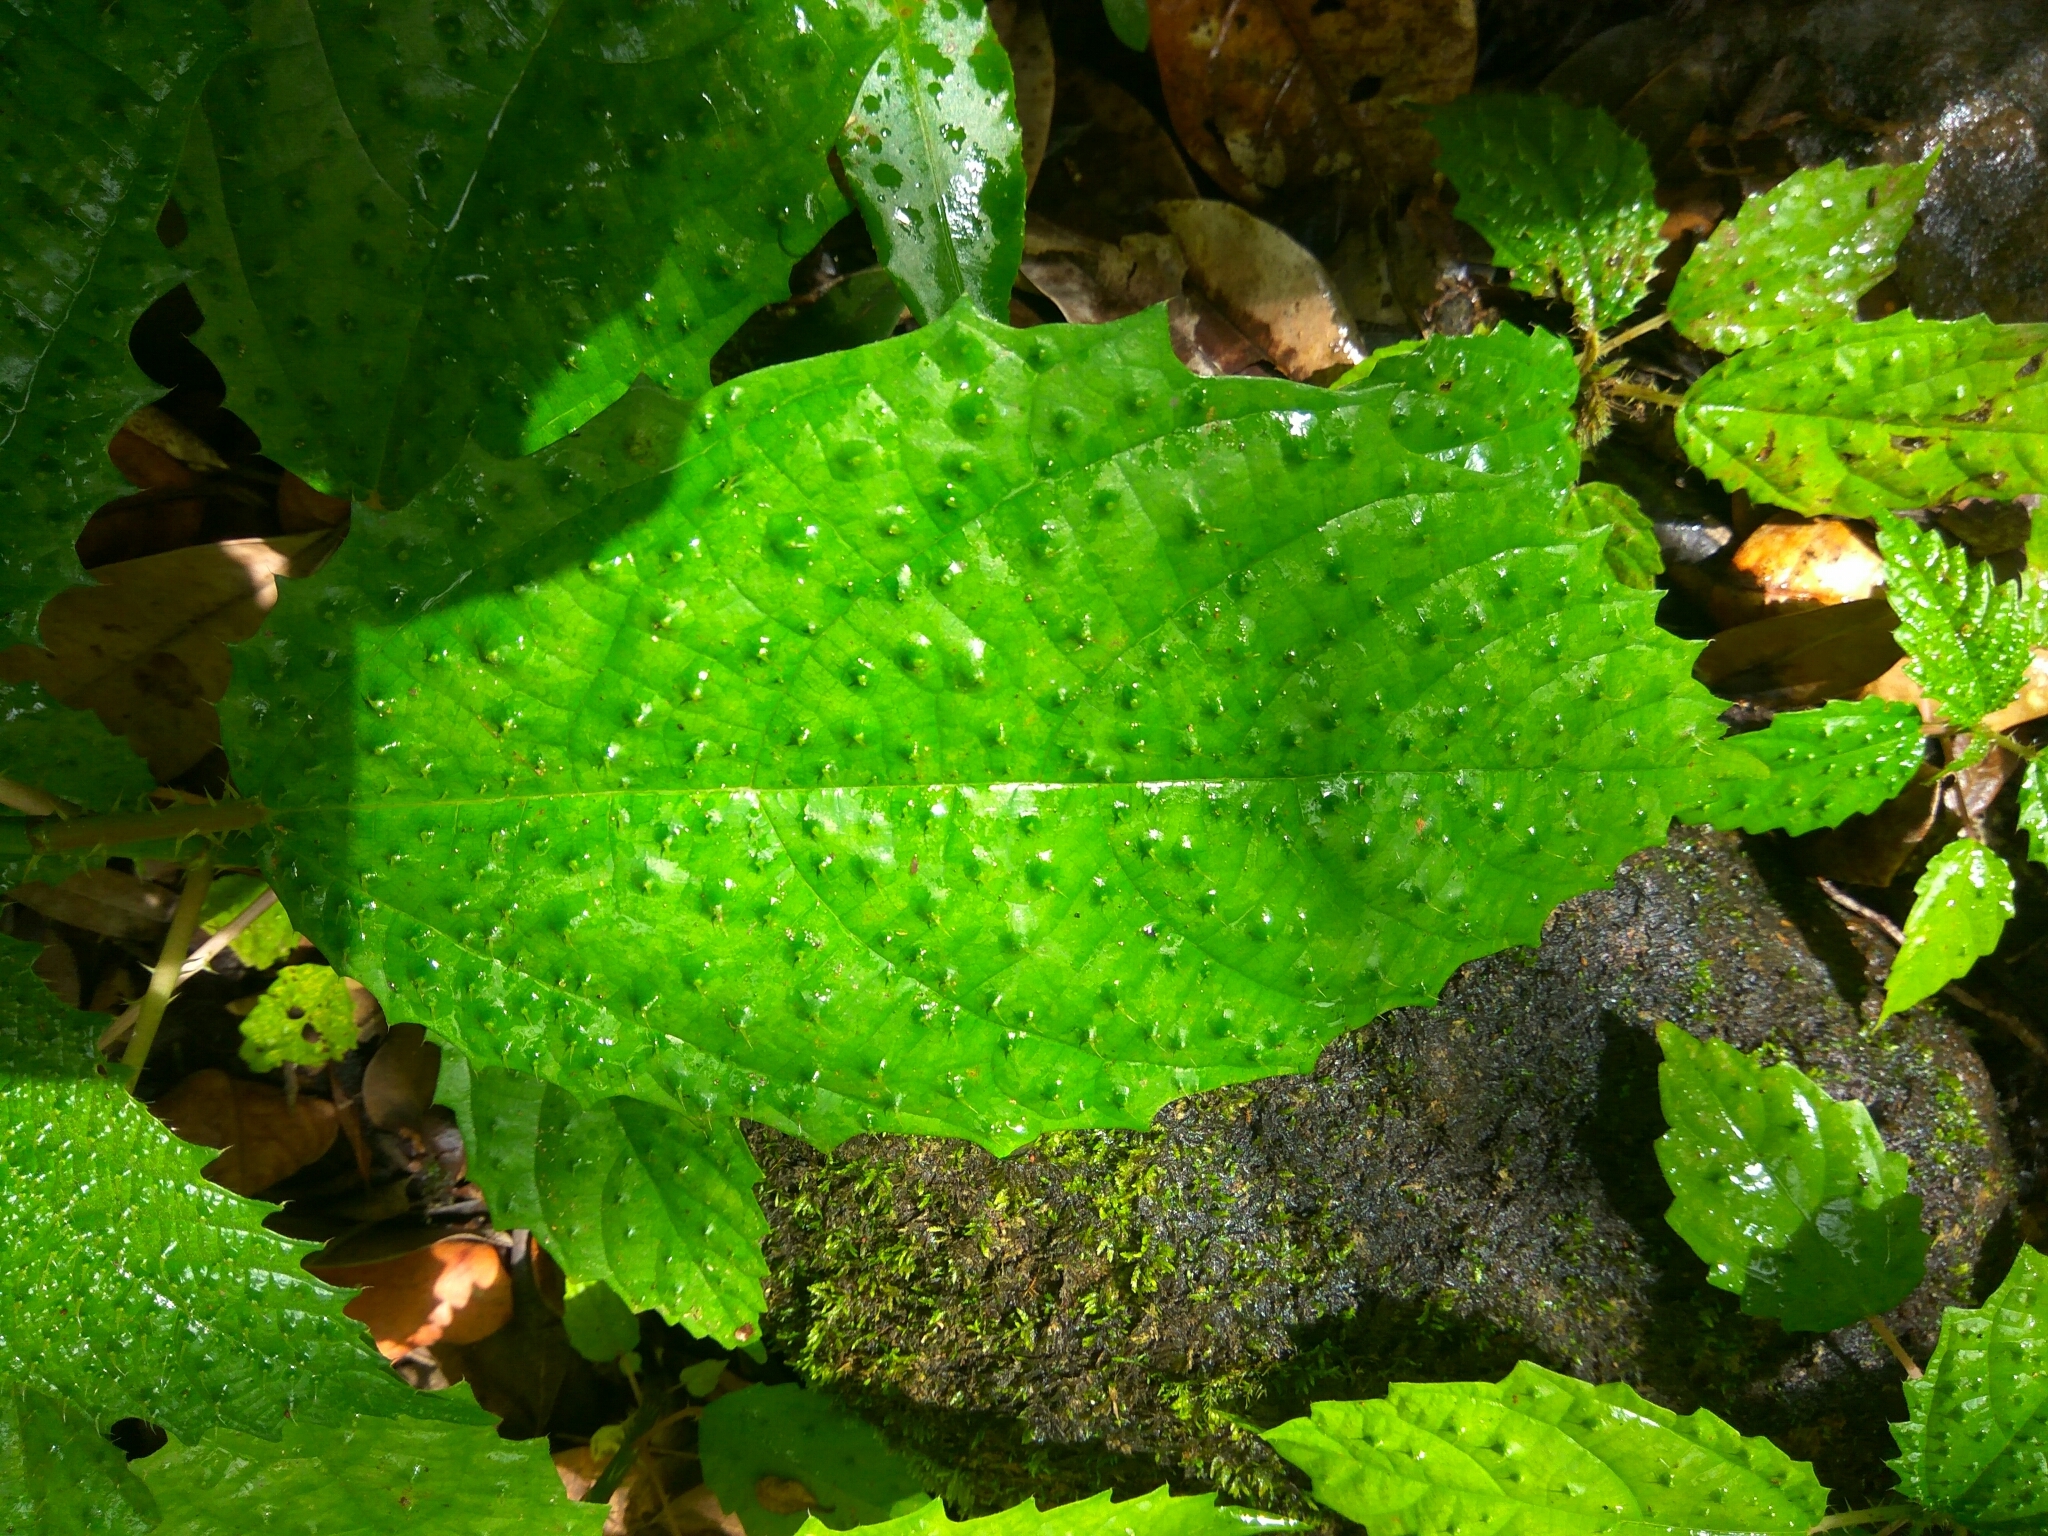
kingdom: Plantae
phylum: Tracheophyta
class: Magnoliopsida
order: Rosales
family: Urticaceae
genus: Urera
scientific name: Urera baccifera
